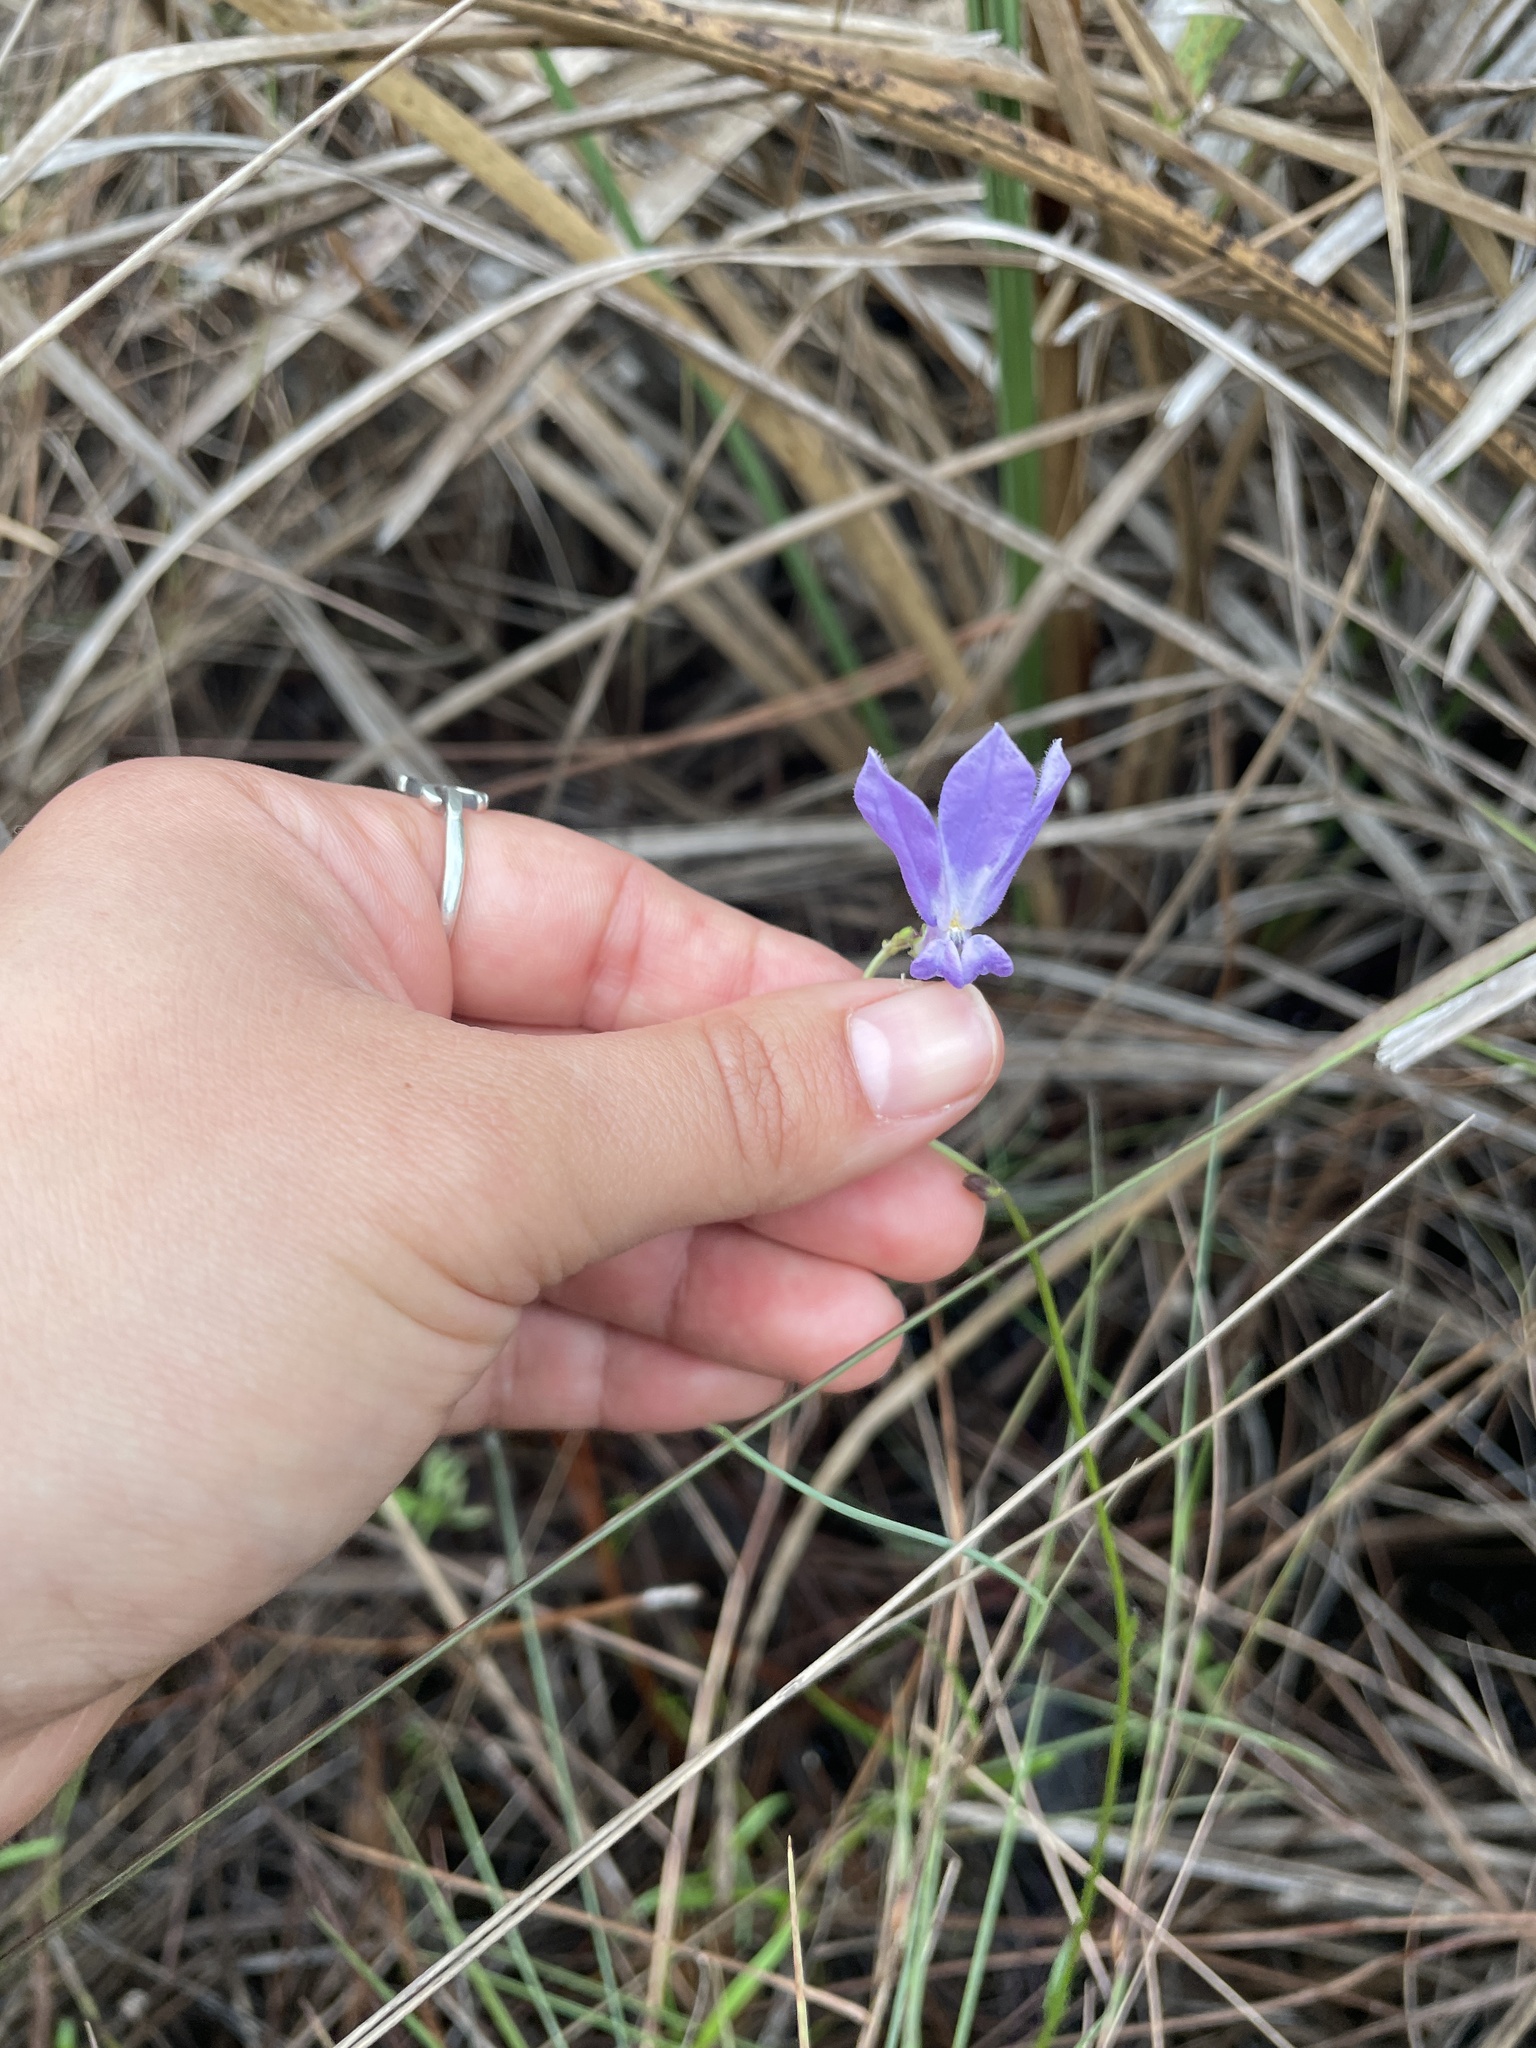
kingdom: Plantae
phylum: Tracheophyta
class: Magnoliopsida
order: Asterales
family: Campanulaceae
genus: Lobelia
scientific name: Lobelia glandulosa
